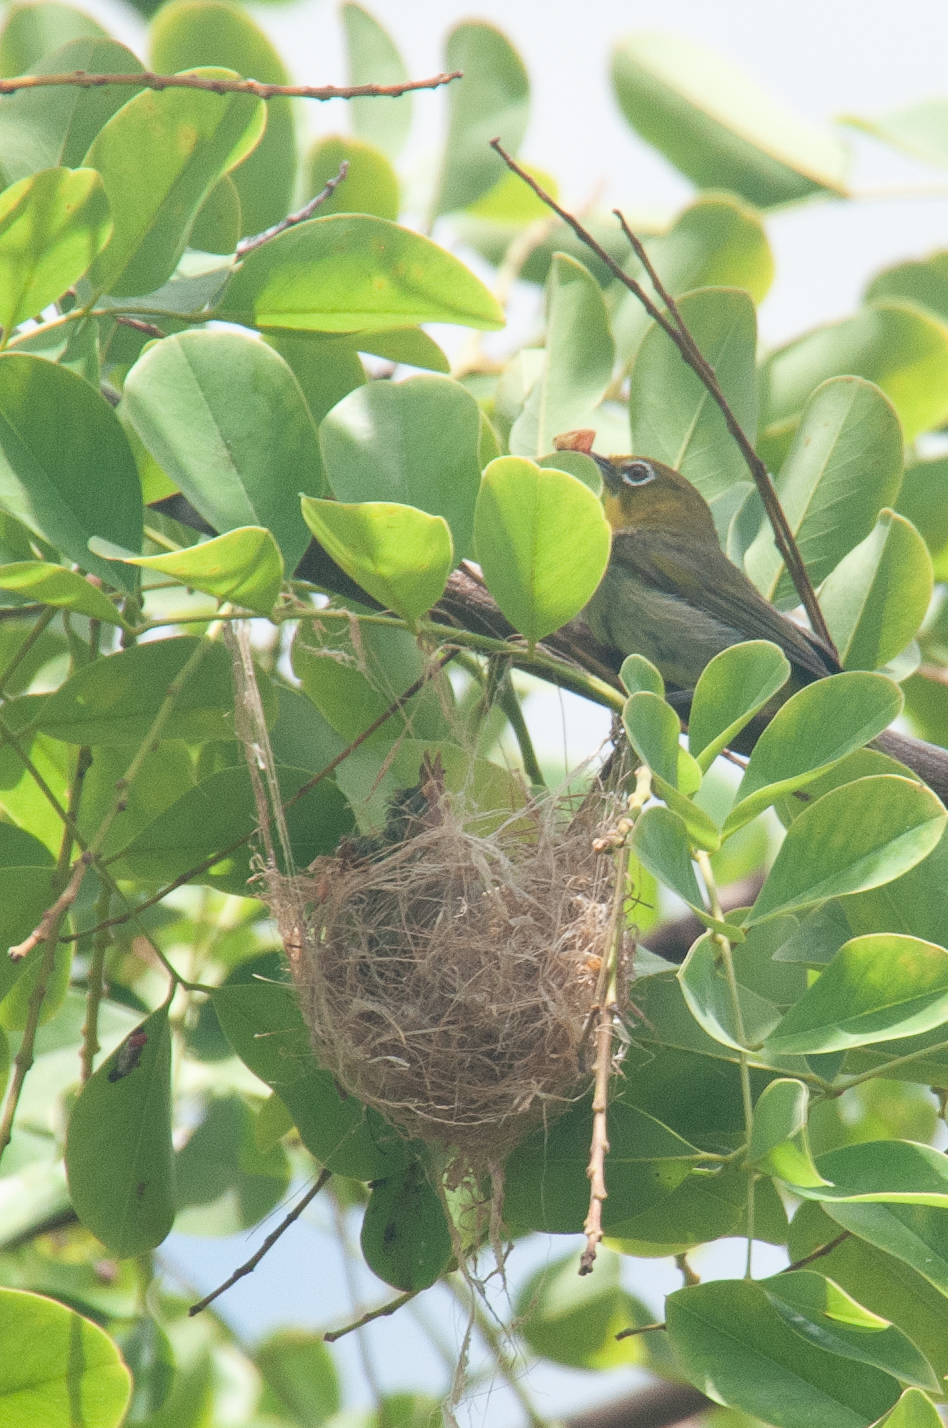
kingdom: Animalia
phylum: Chordata
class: Aves
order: Passeriformes
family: Zosteropidae
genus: Zosterops
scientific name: Zosterops japonicus
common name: Japanese white-eye
